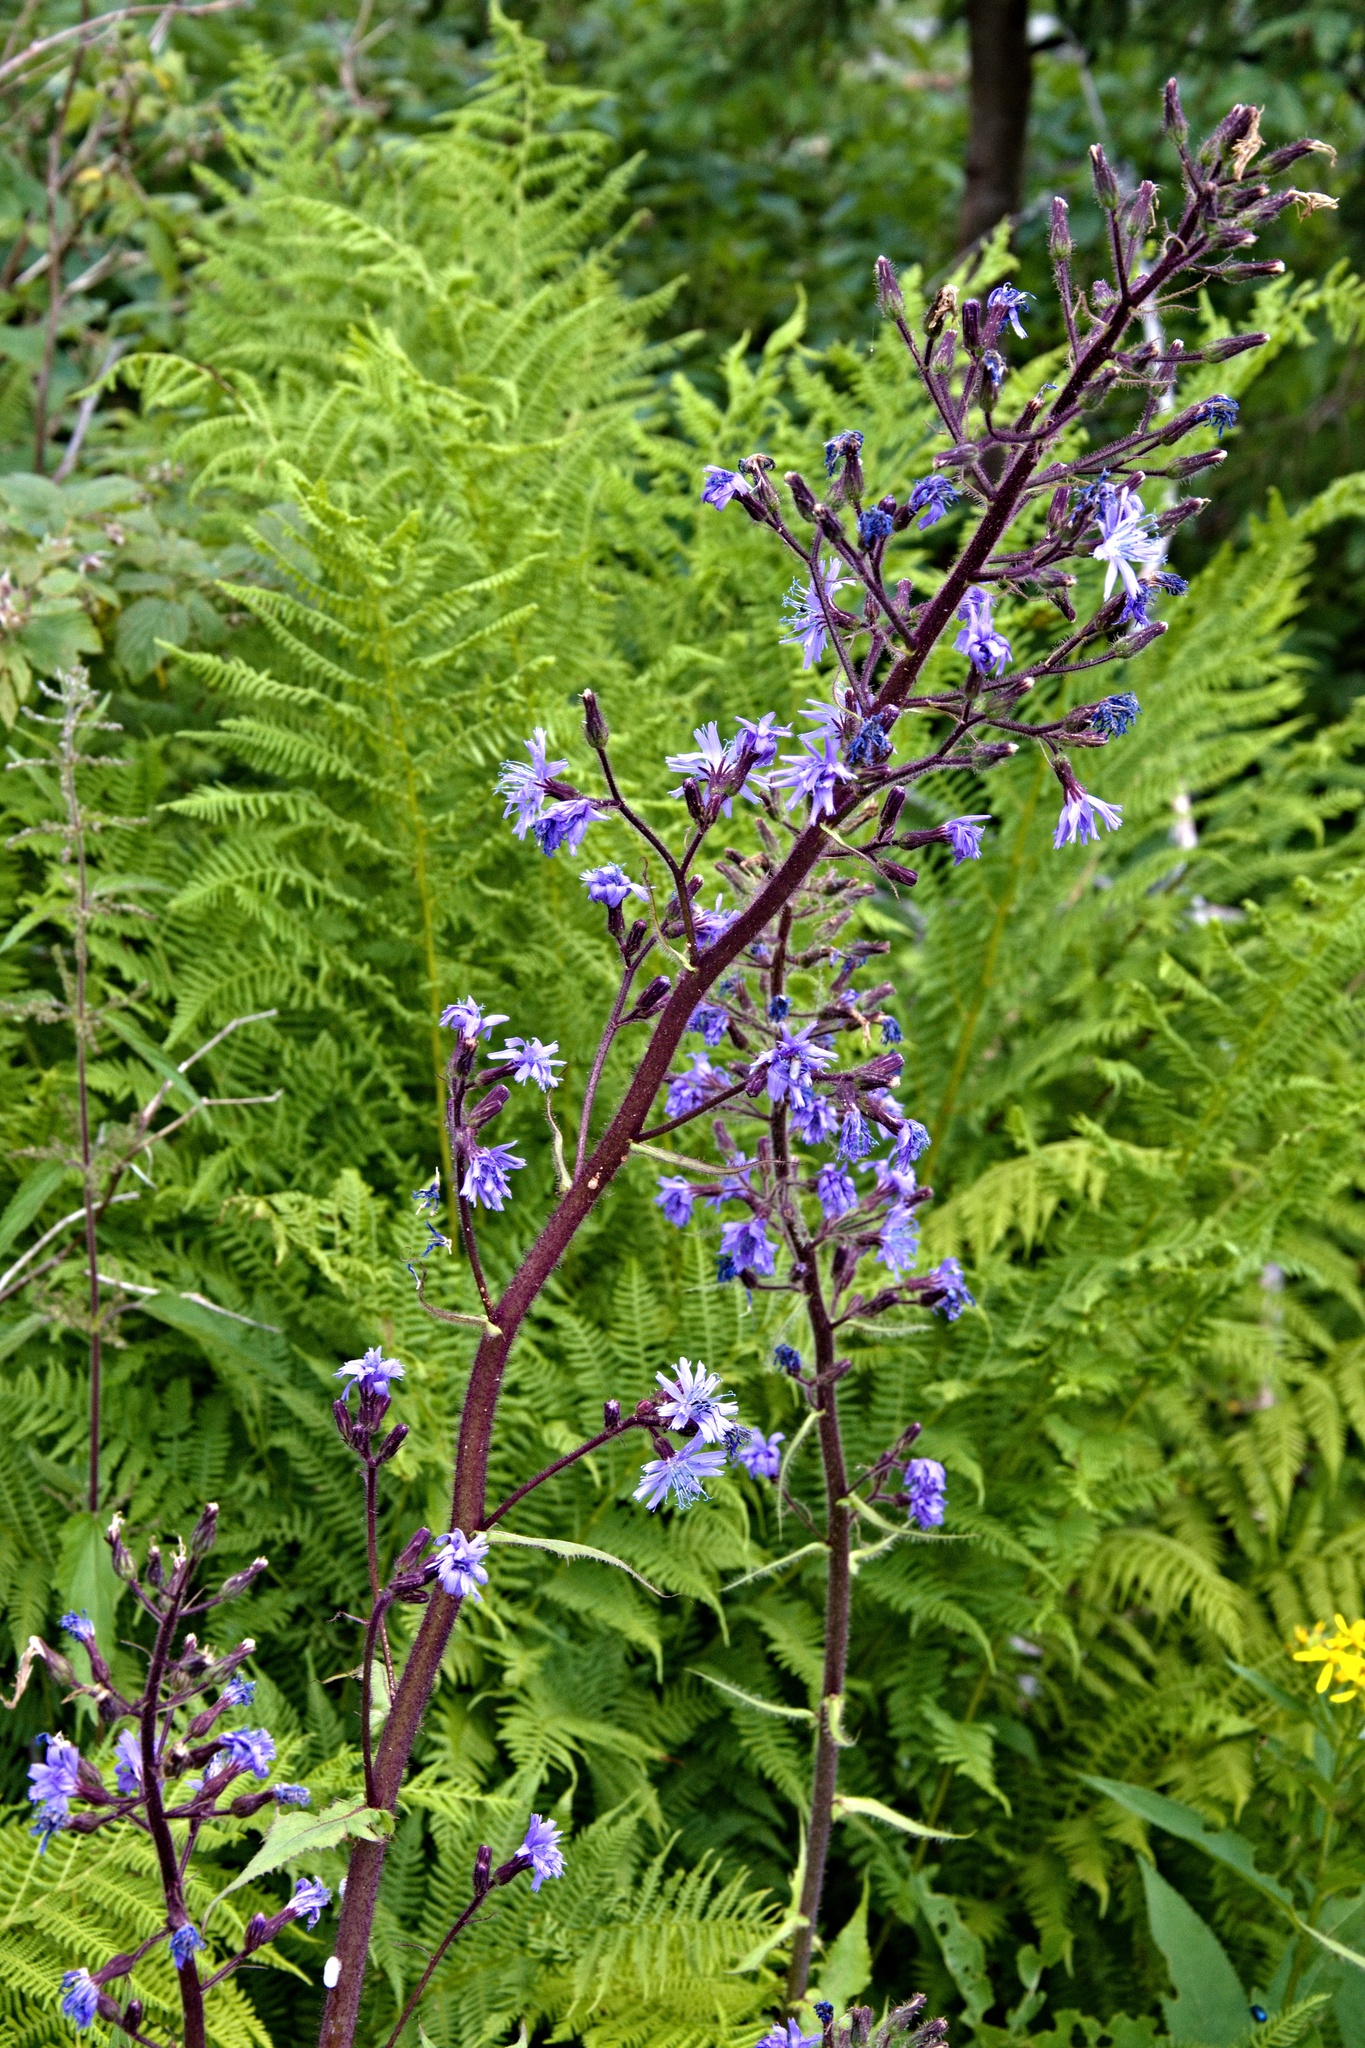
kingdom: Plantae
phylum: Tracheophyta
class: Magnoliopsida
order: Asterales
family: Asteraceae
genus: Cicerbita
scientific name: Cicerbita alpina
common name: Alpine blue-sow-thistle
